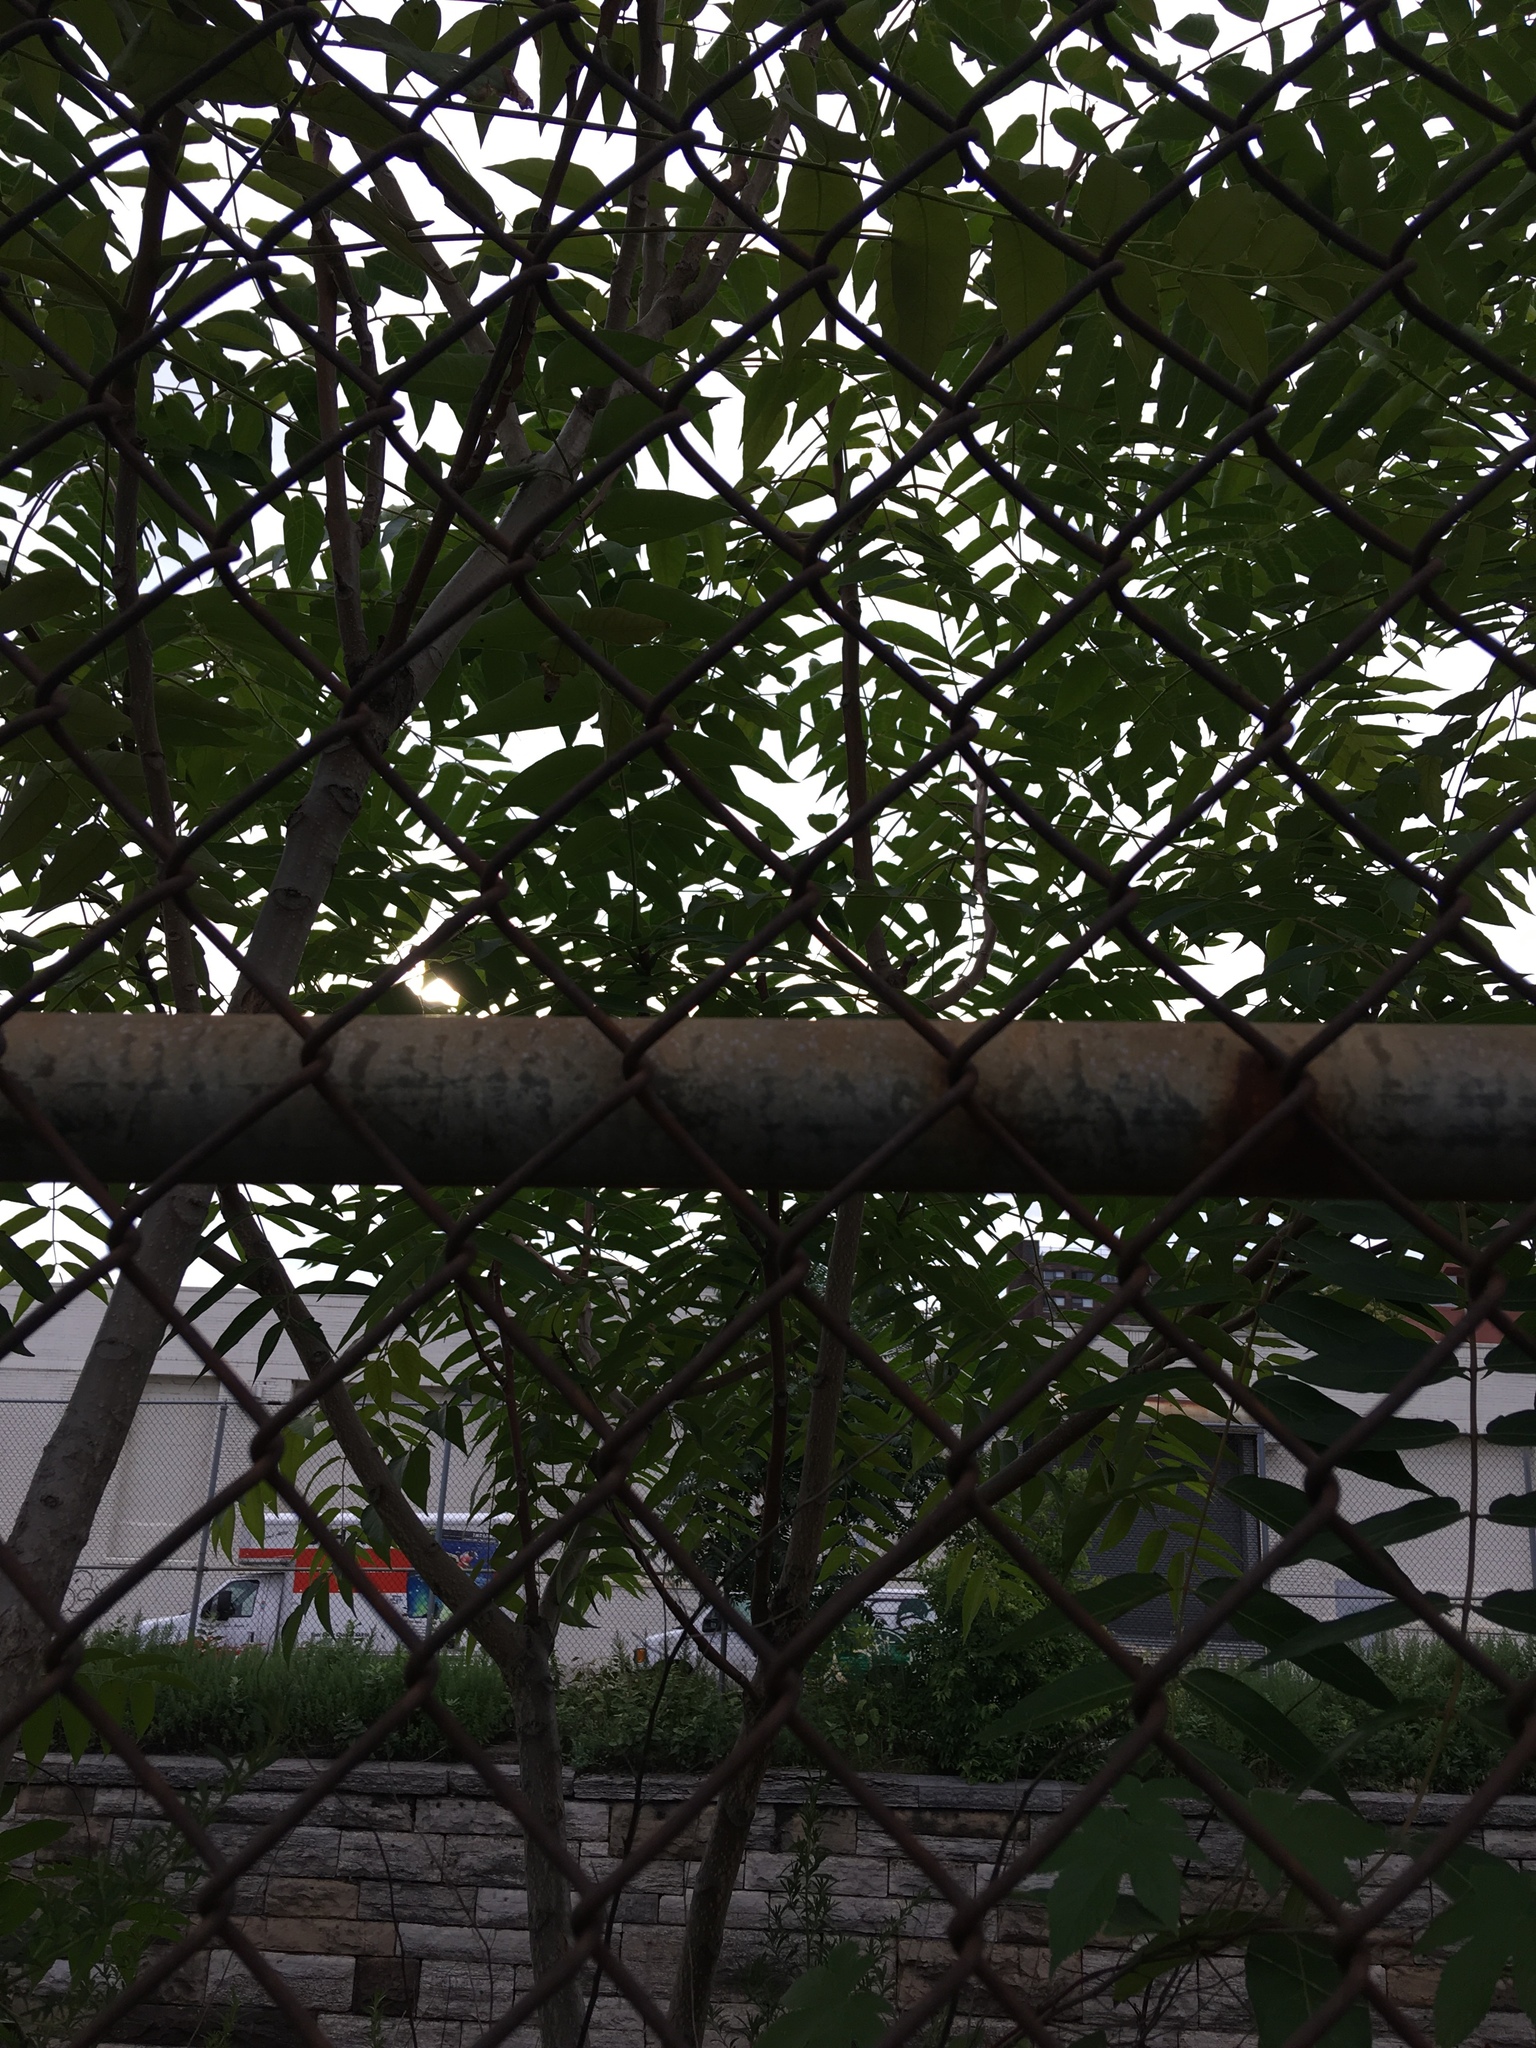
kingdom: Plantae
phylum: Tracheophyta
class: Magnoliopsida
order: Sapindales
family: Simaroubaceae
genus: Ailanthus
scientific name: Ailanthus altissima
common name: Tree-of-heaven
